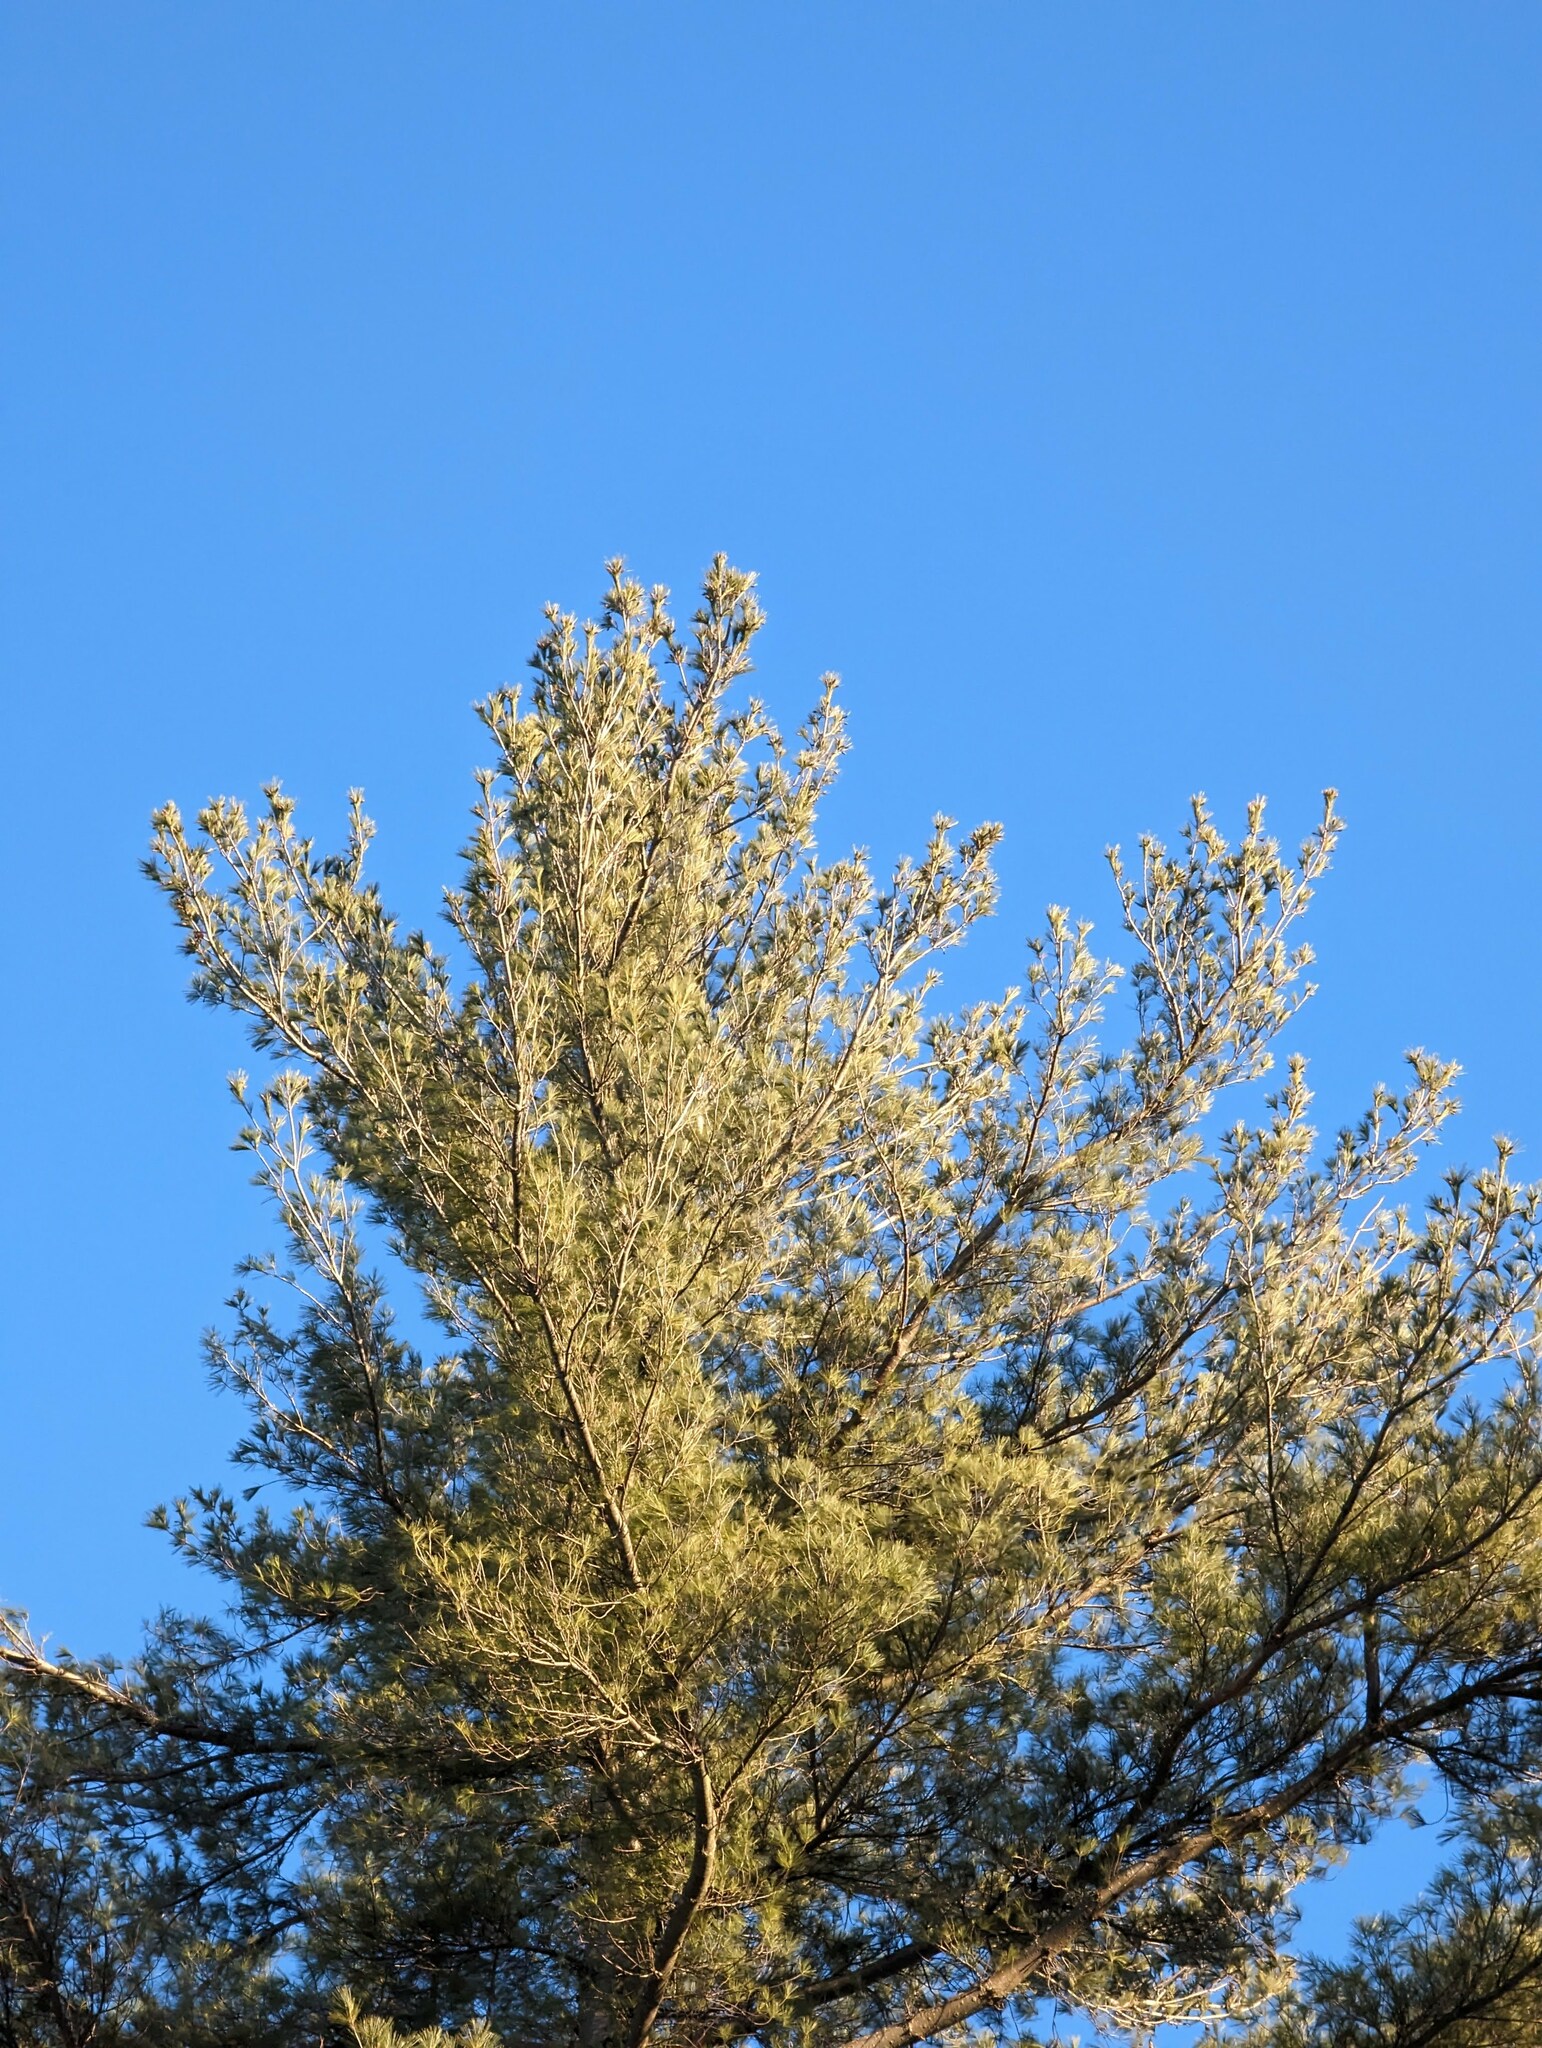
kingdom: Plantae
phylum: Tracheophyta
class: Pinopsida
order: Pinales
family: Pinaceae
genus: Pinus
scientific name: Pinus strobus
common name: Weymouth pine
